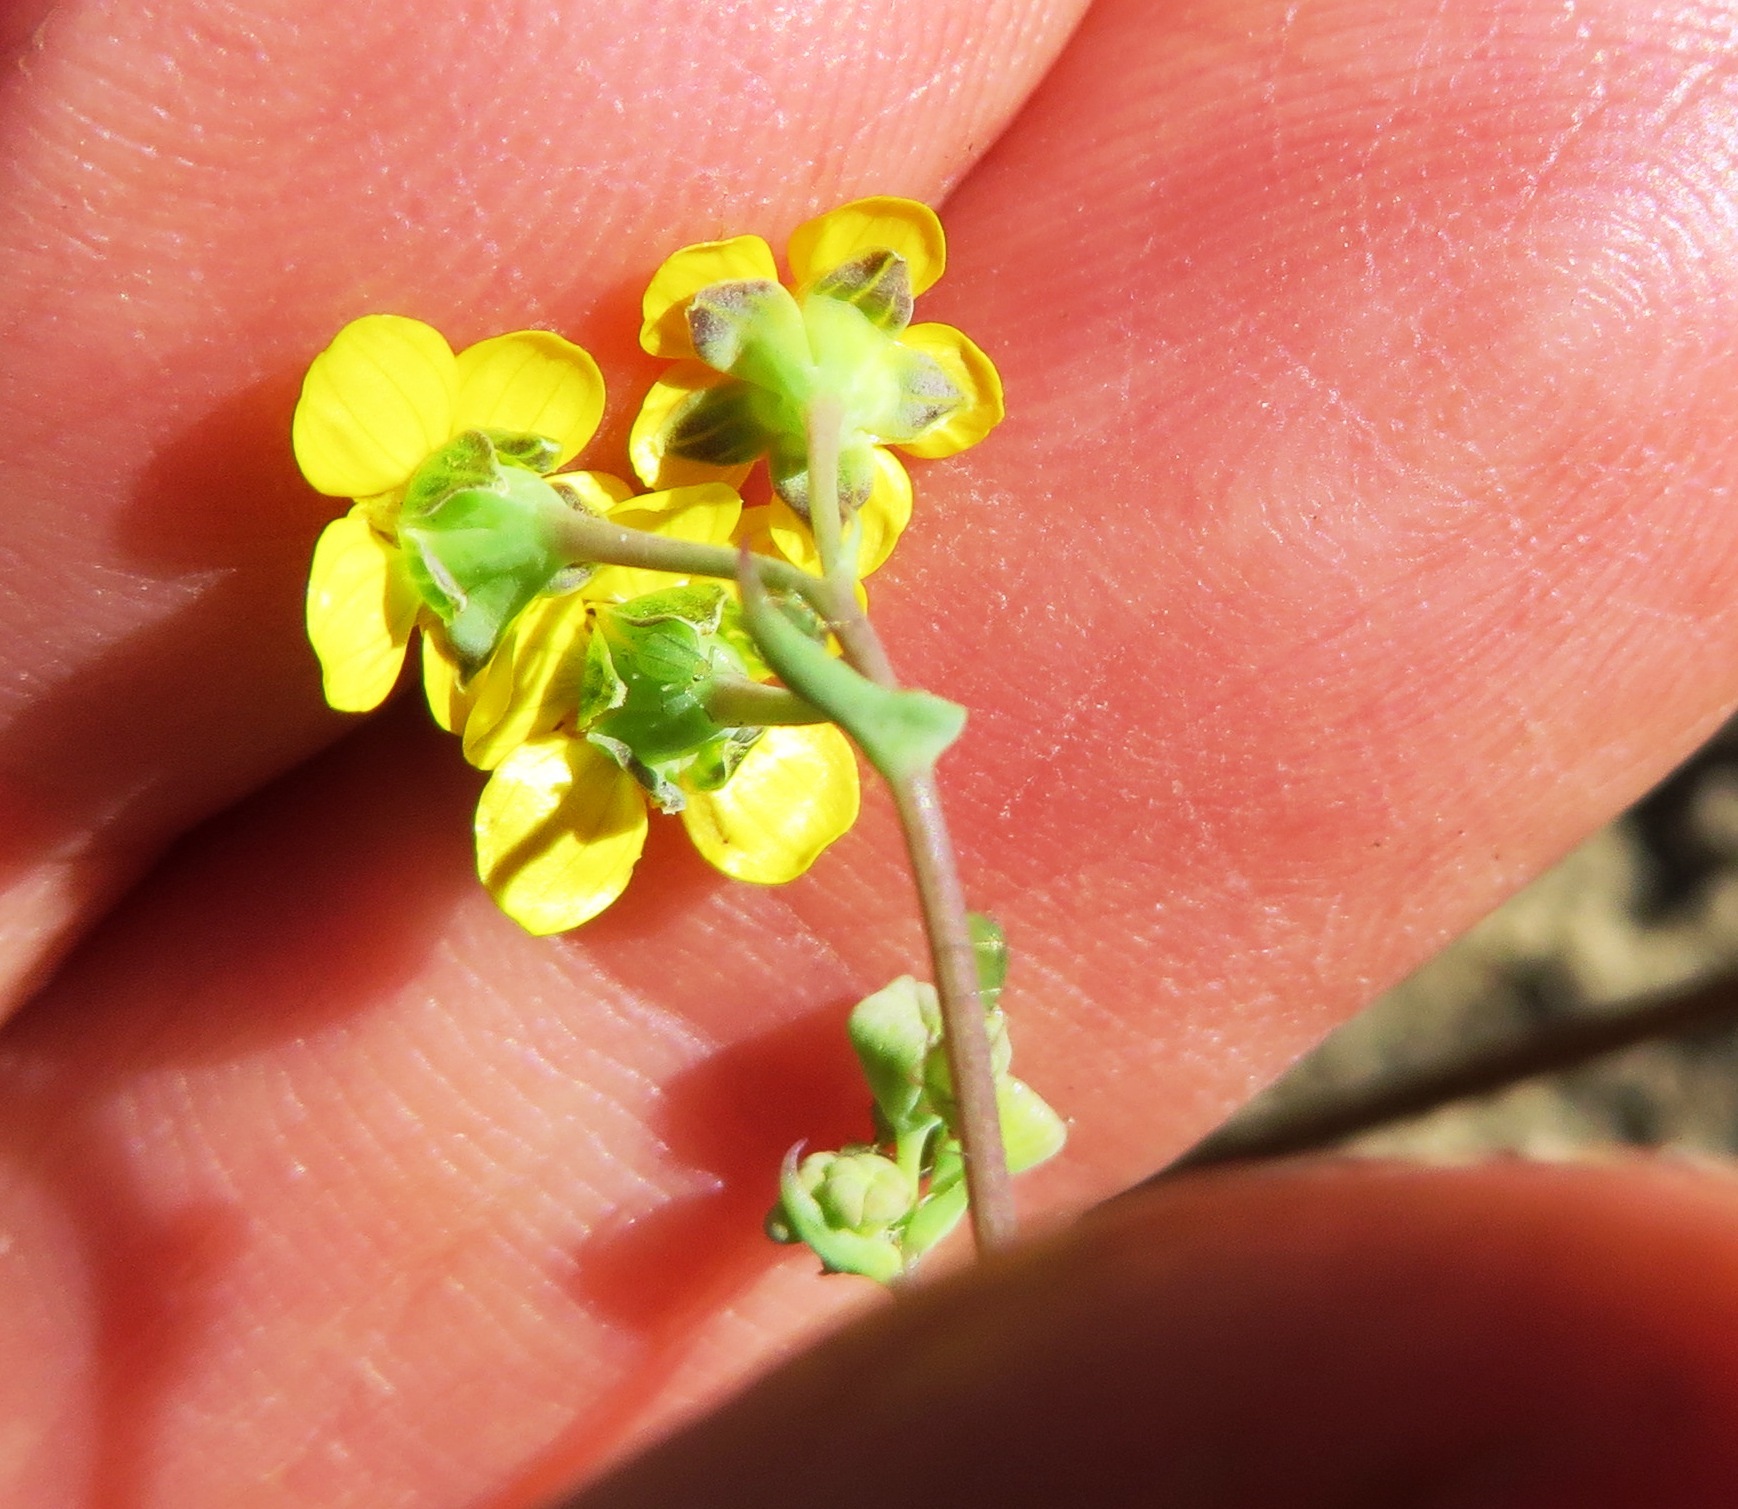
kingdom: Plantae
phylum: Tracheophyta
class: Magnoliopsida
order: Asterales
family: Asteraceae
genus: Gymnodiscus
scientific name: Gymnodiscus capillaris
